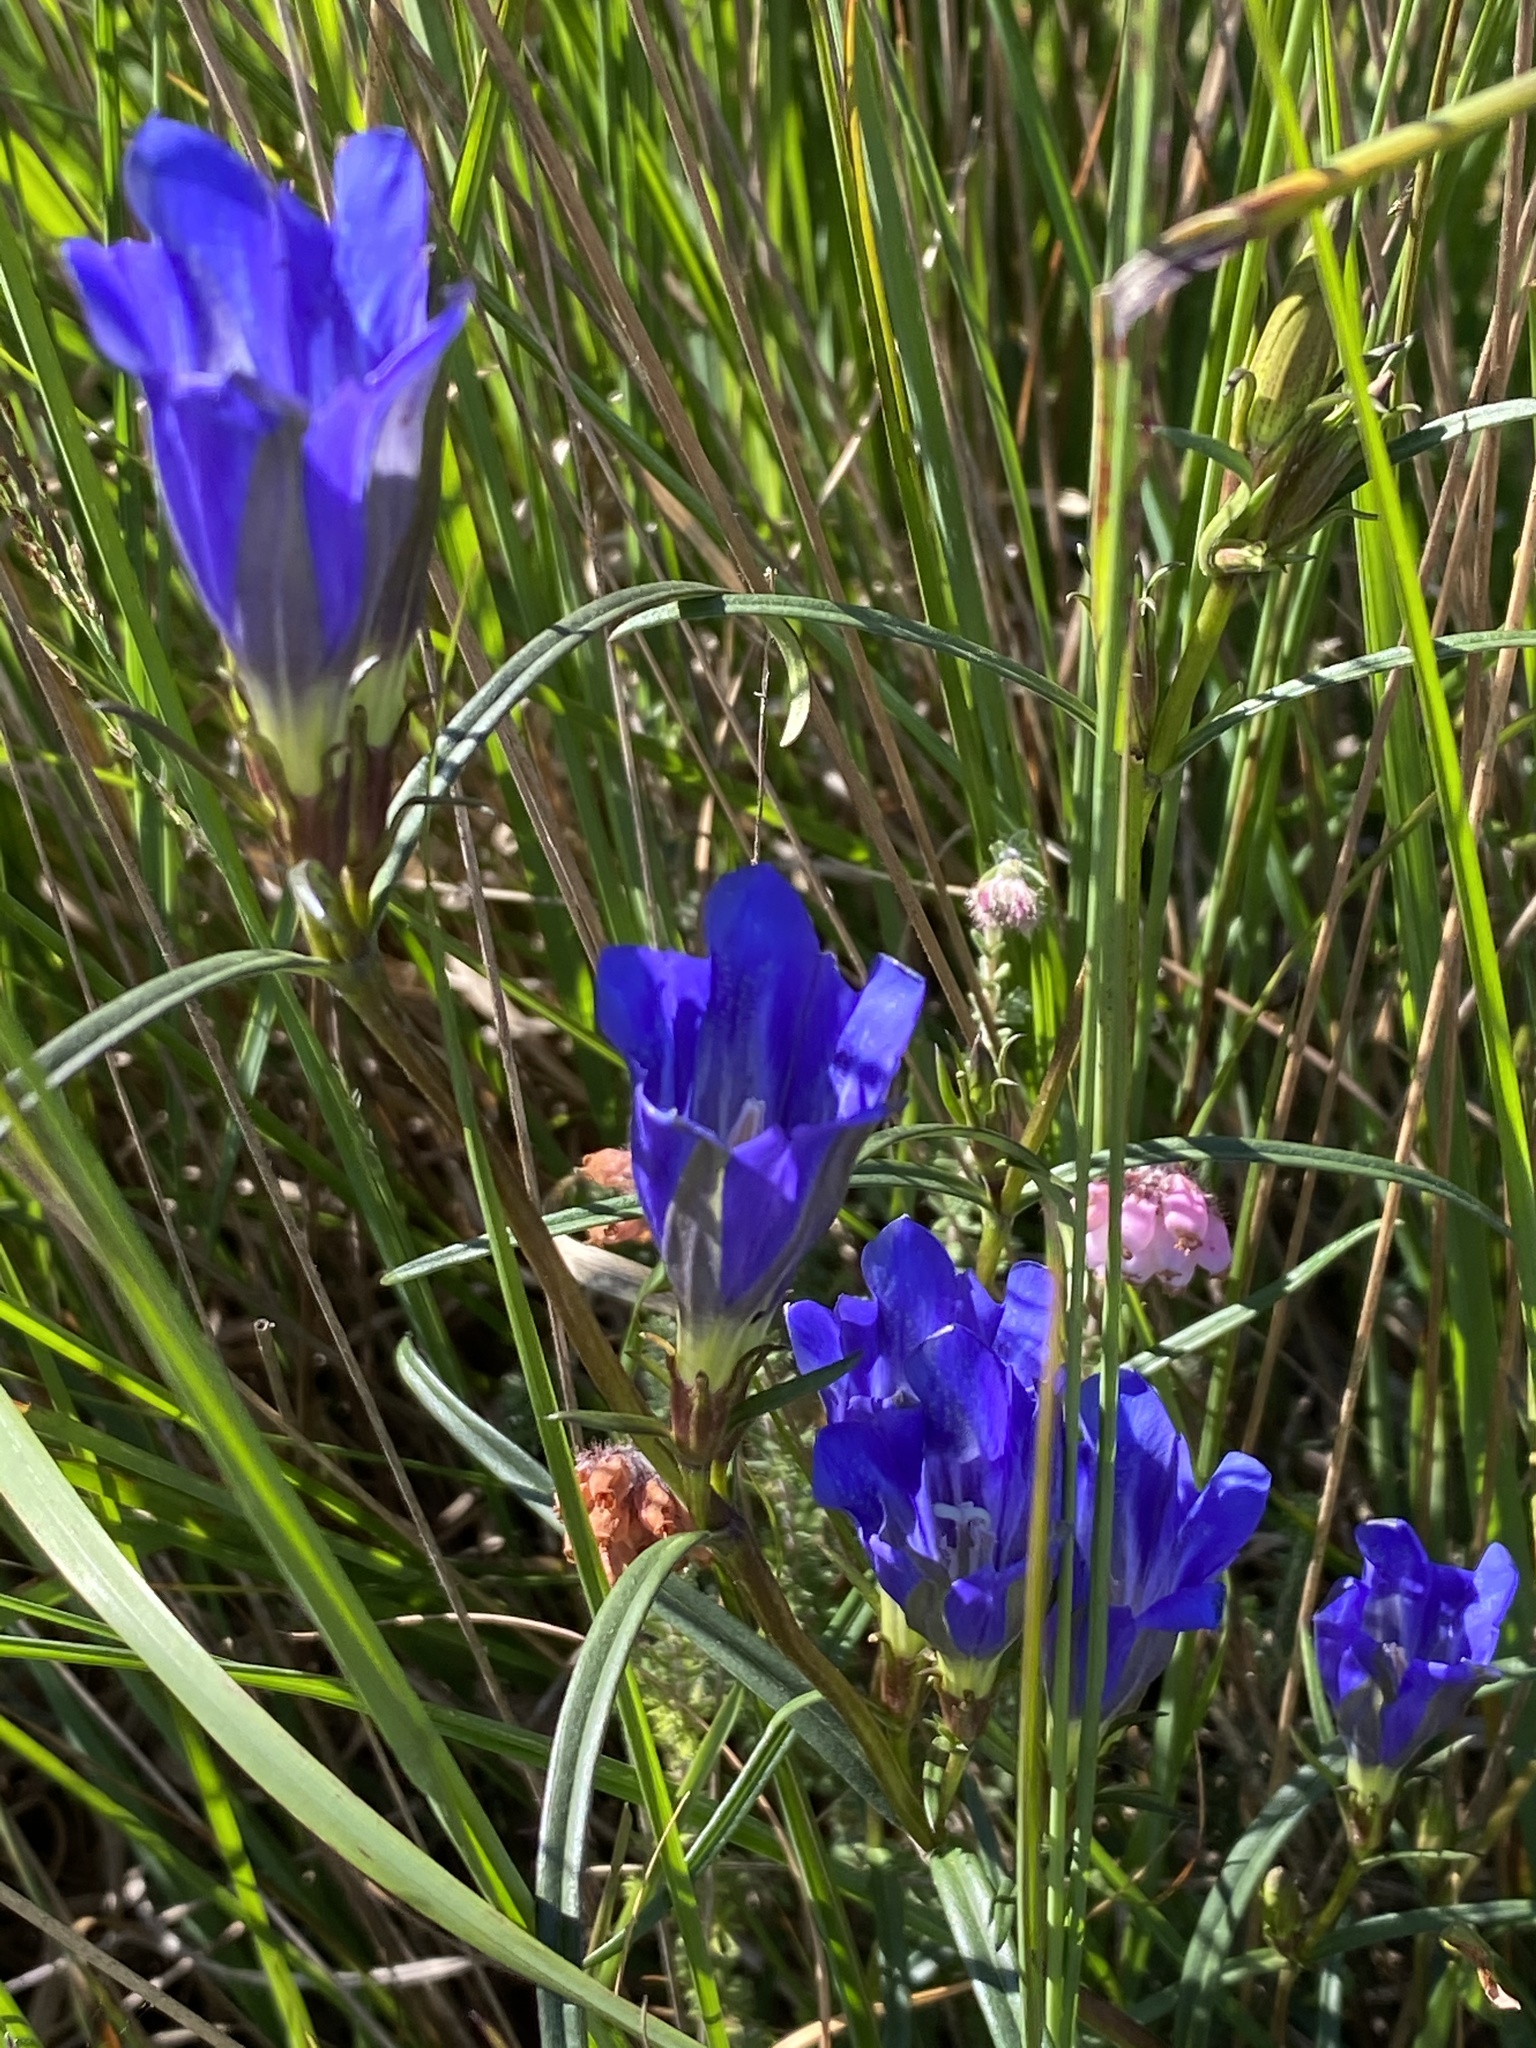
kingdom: Plantae
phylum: Tracheophyta
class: Magnoliopsida
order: Gentianales
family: Gentianaceae
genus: Gentiana
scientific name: Gentiana pneumonanthe
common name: Marsh gentian
